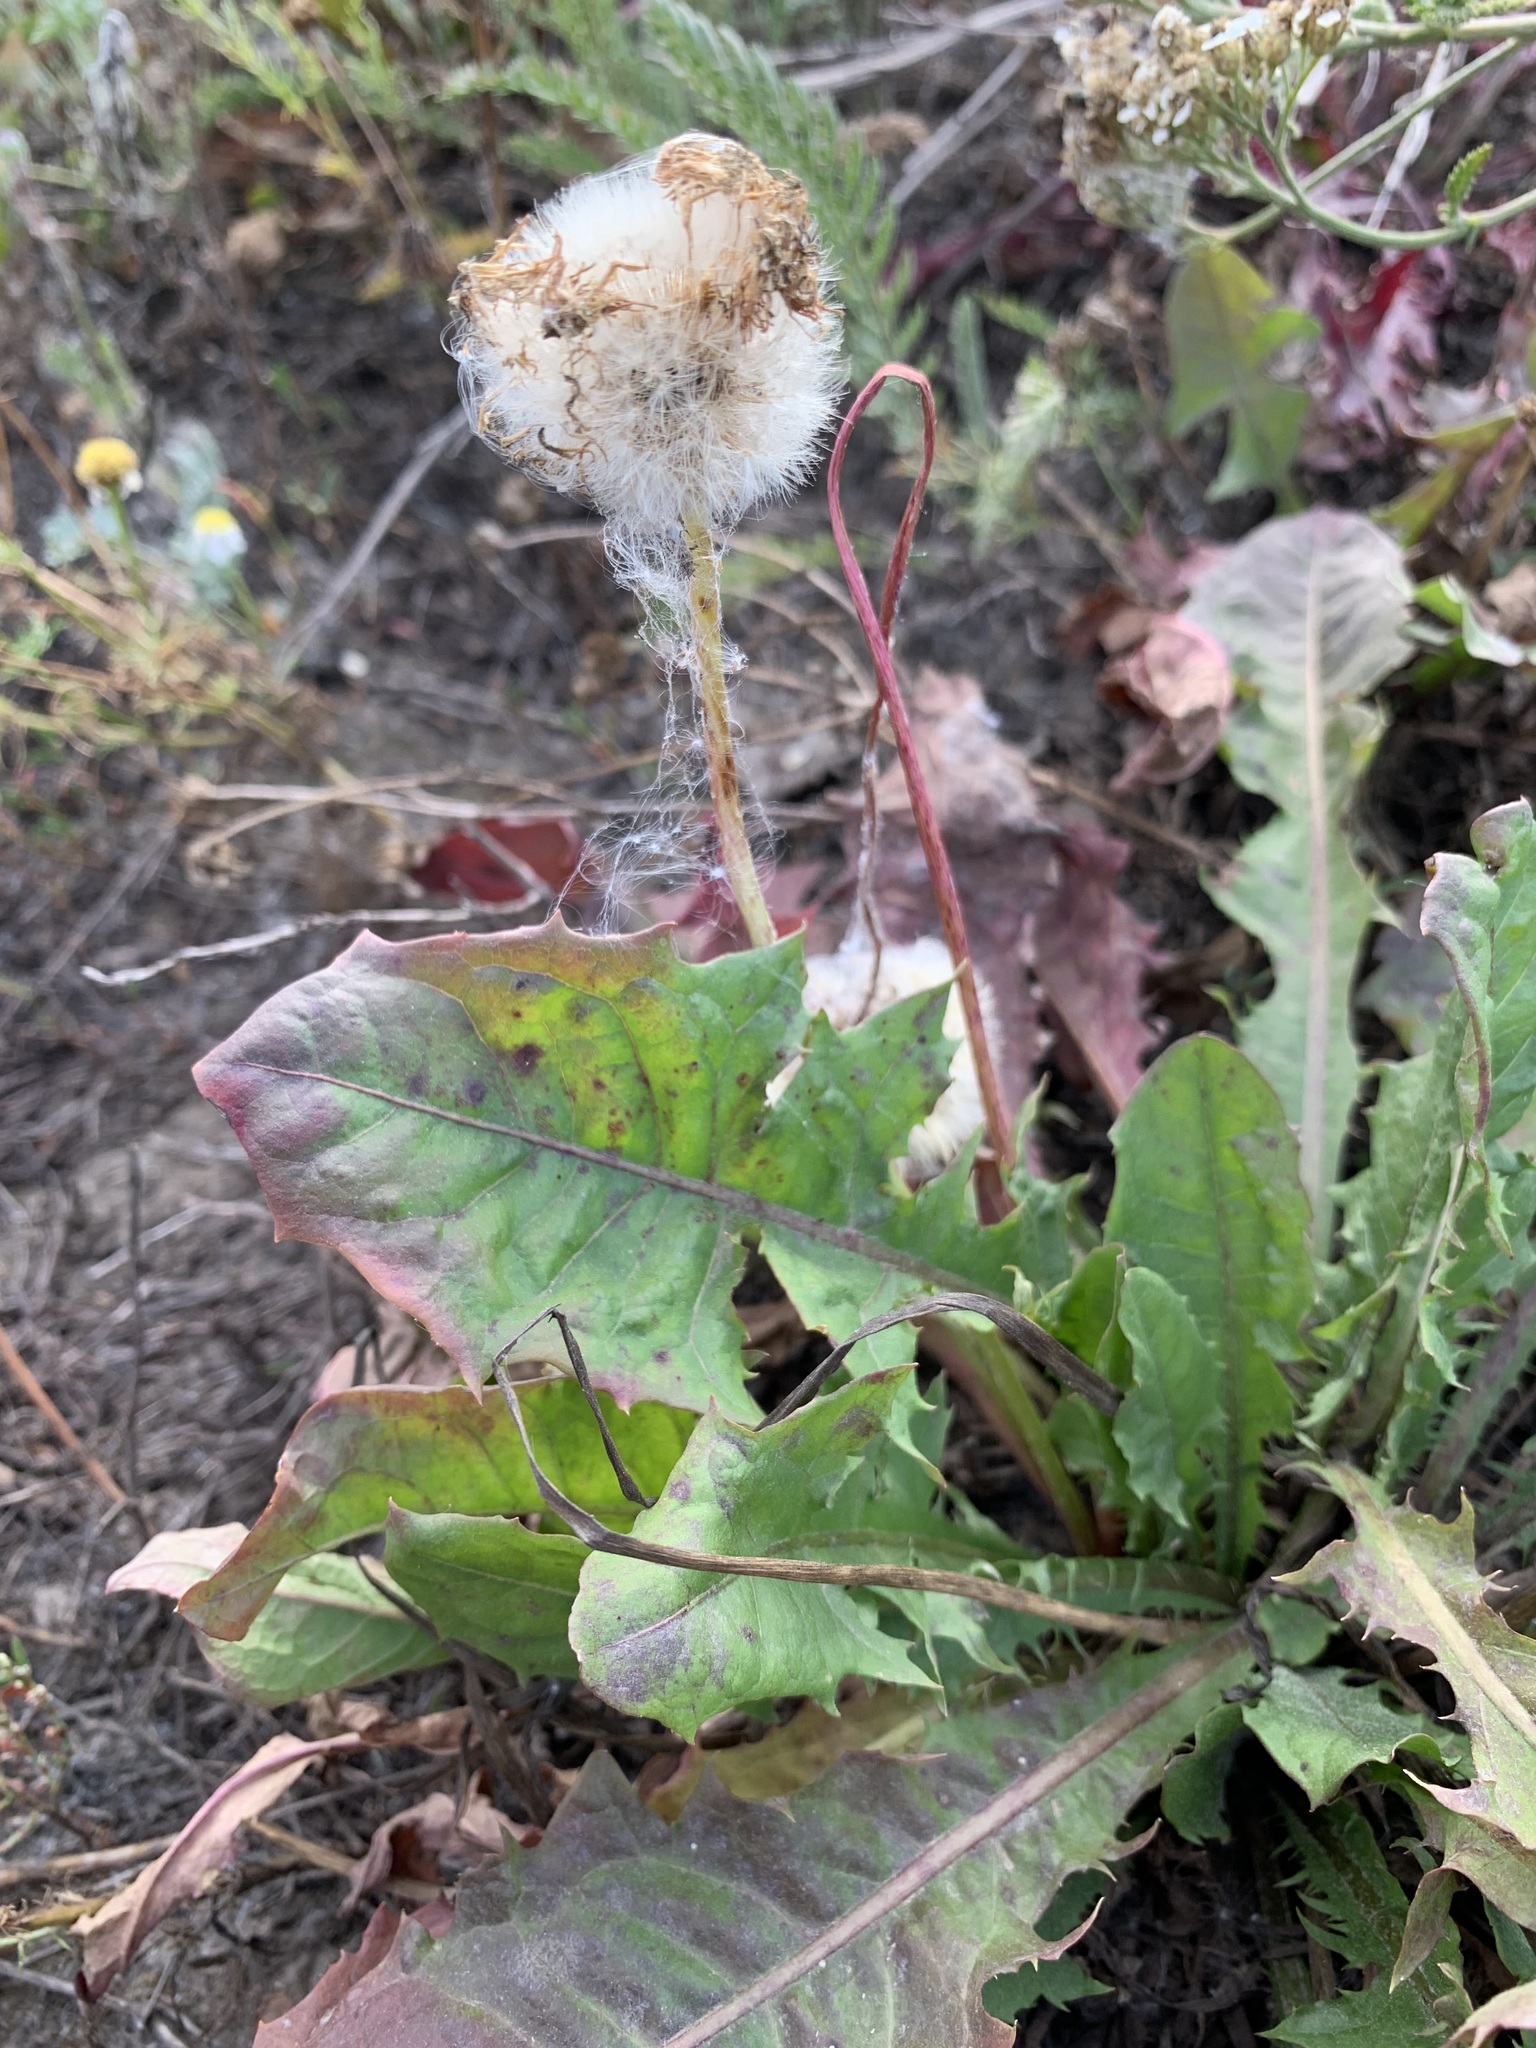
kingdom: Plantae
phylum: Tracheophyta
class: Magnoliopsida
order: Asterales
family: Asteraceae
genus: Taraxacum
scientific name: Taraxacum officinale
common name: Common dandelion
